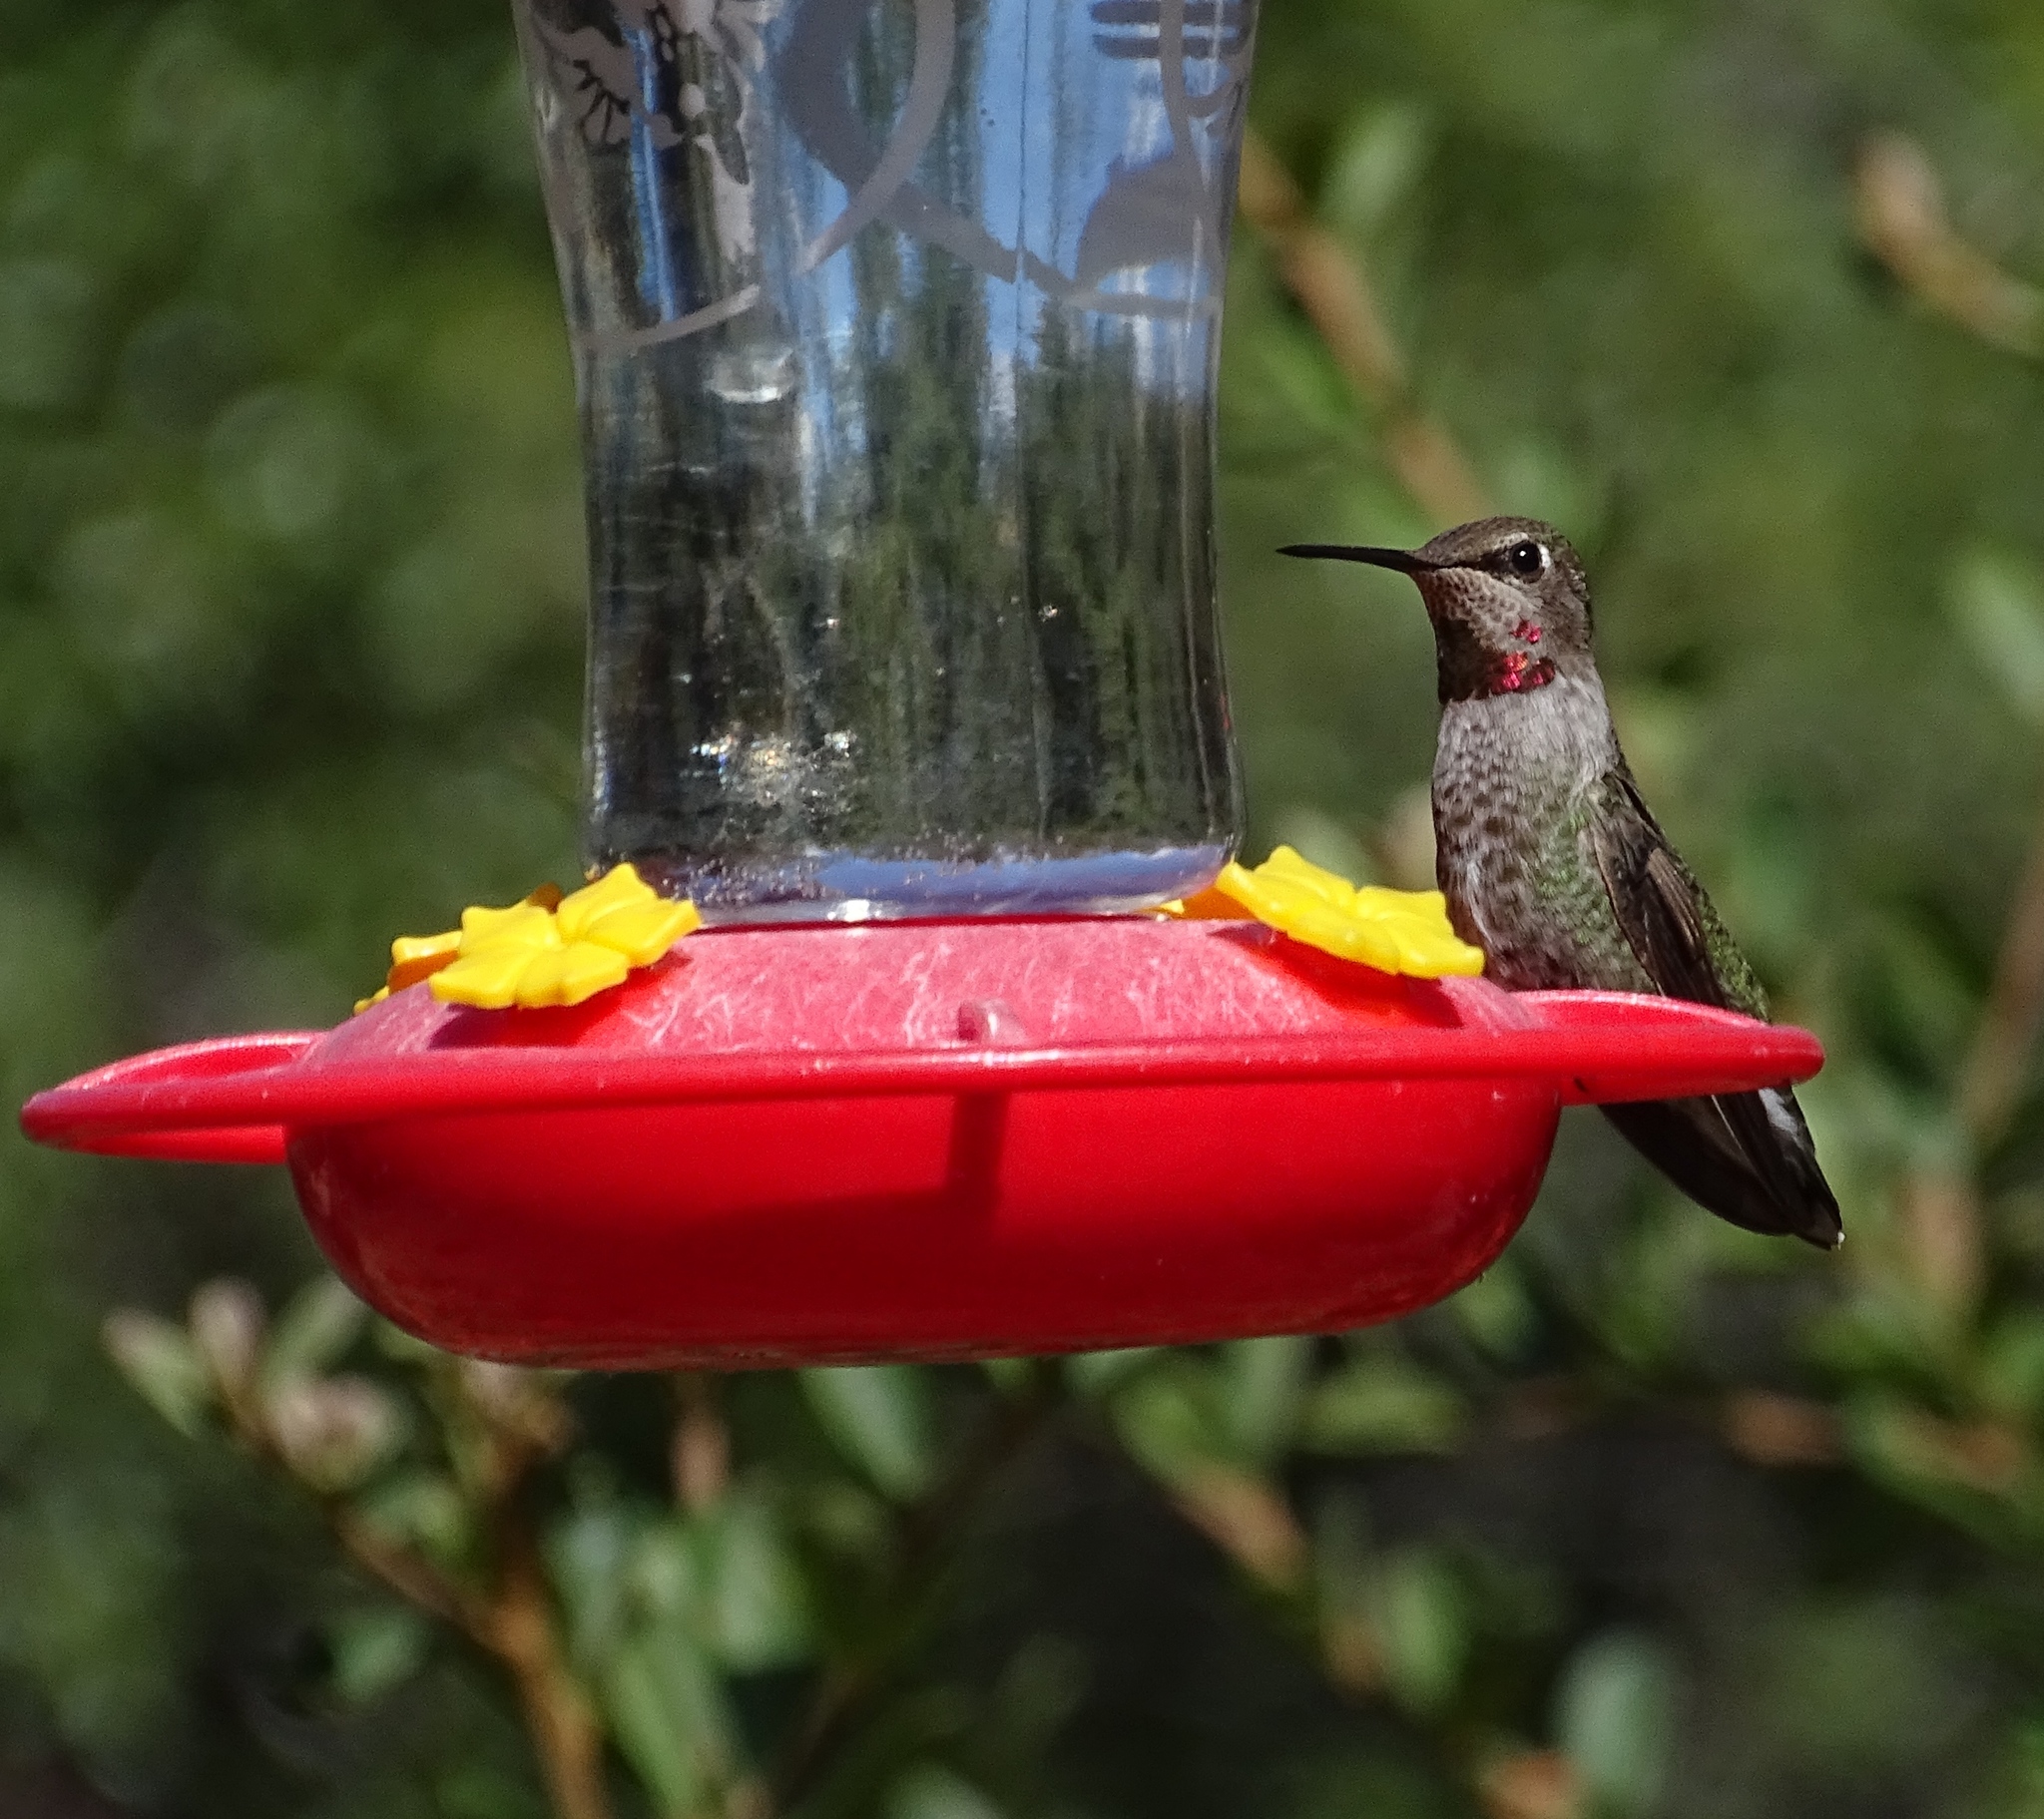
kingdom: Animalia
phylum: Chordata
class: Aves
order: Apodiformes
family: Trochilidae
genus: Calypte
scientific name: Calypte anna
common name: Anna's hummingbird
